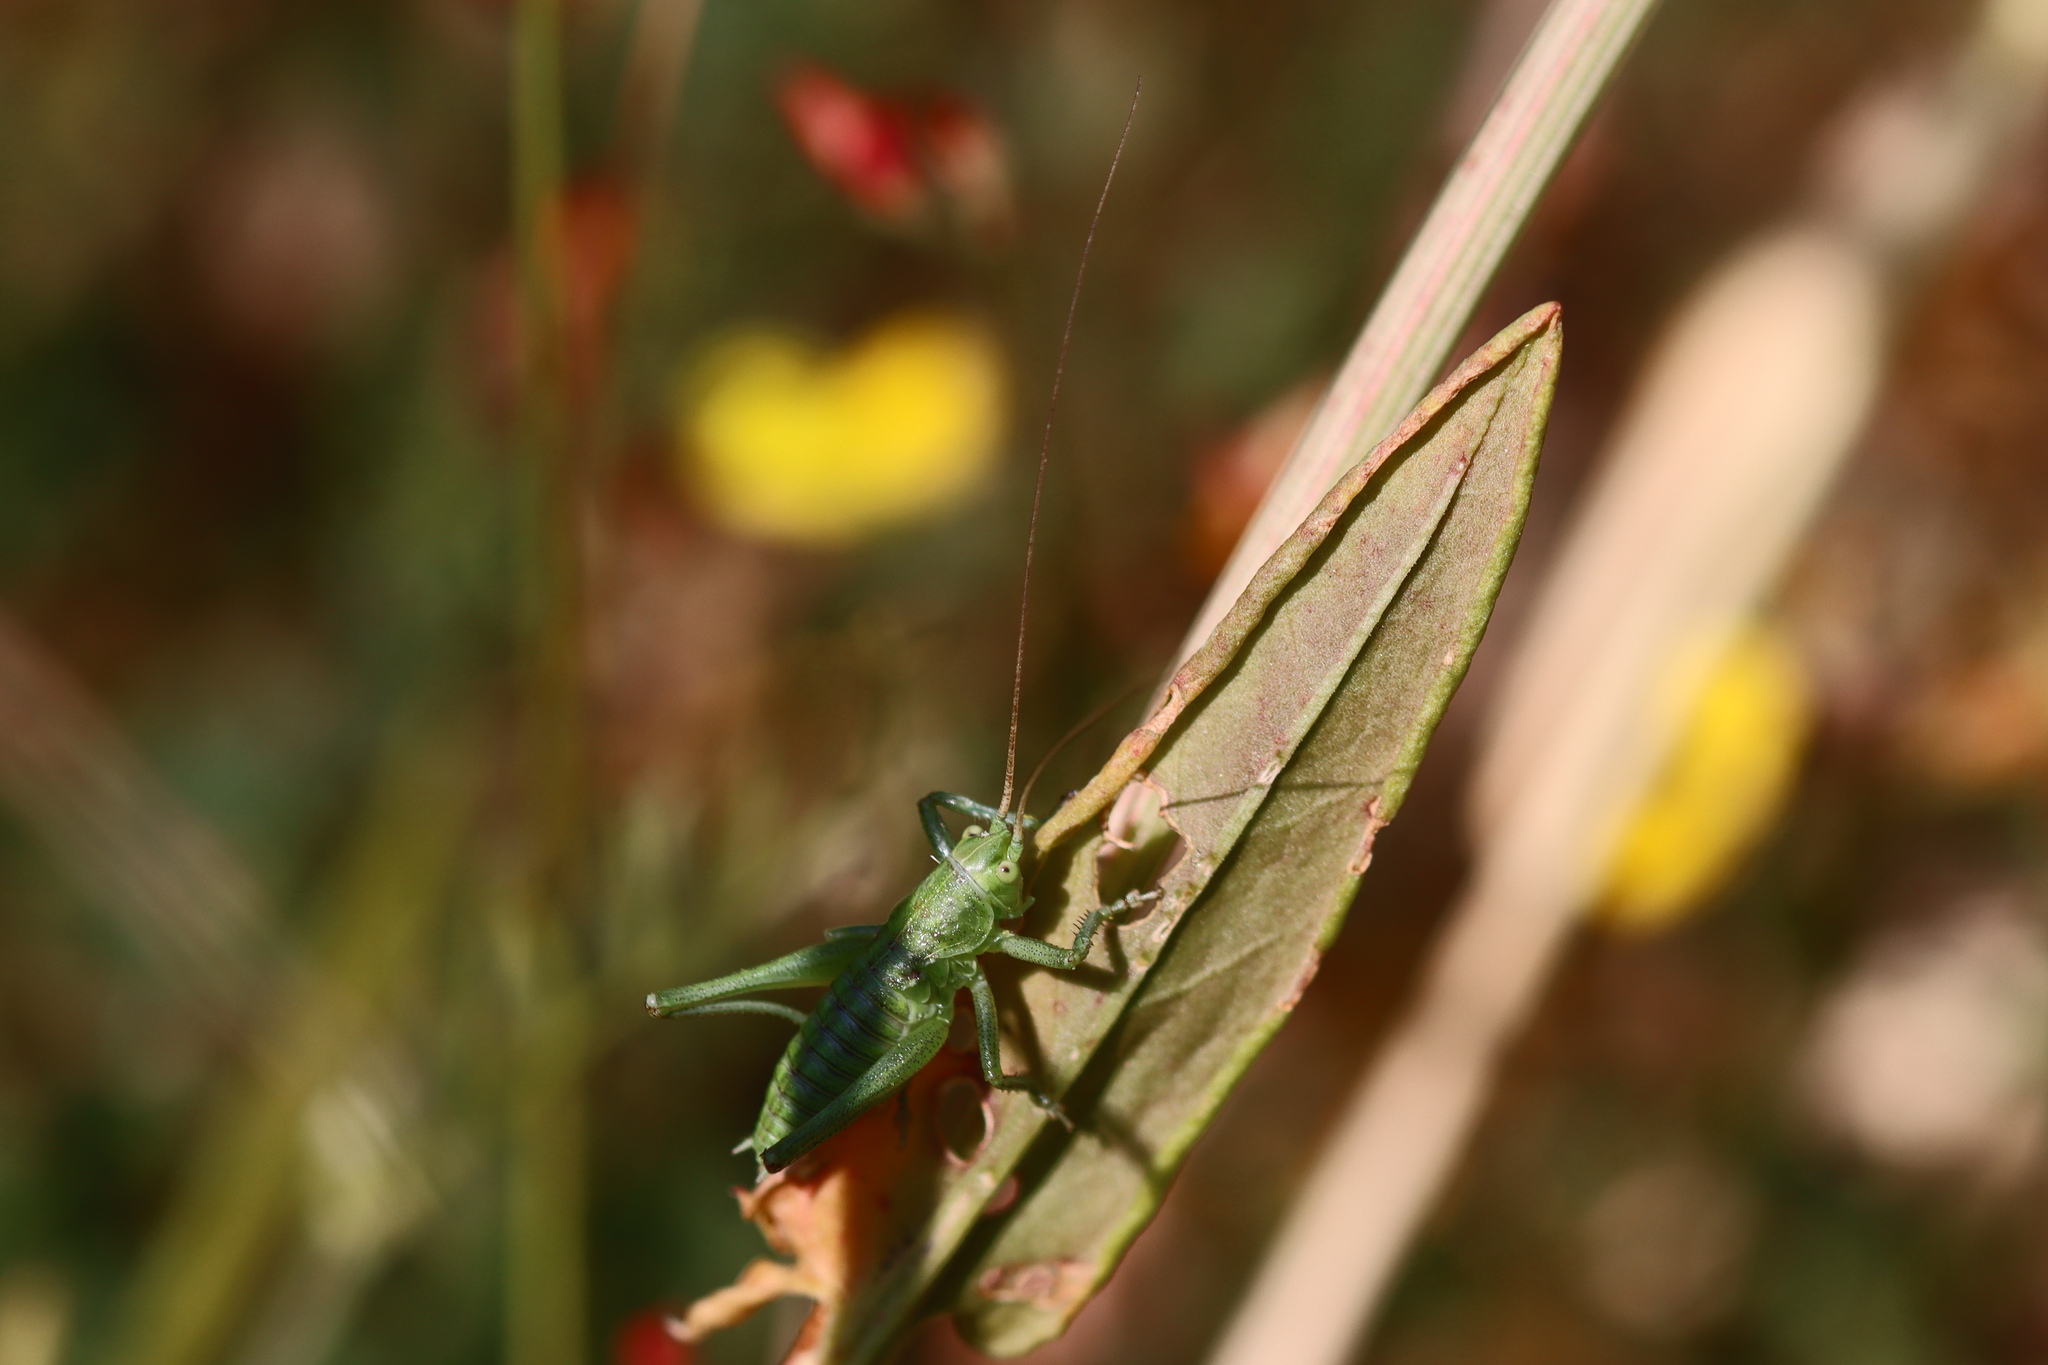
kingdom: Animalia
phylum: Arthropoda
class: Insecta
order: Orthoptera
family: Tettigoniidae
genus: Tettigonia
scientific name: Tettigonia viridissima
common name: Great green bush-cricket
